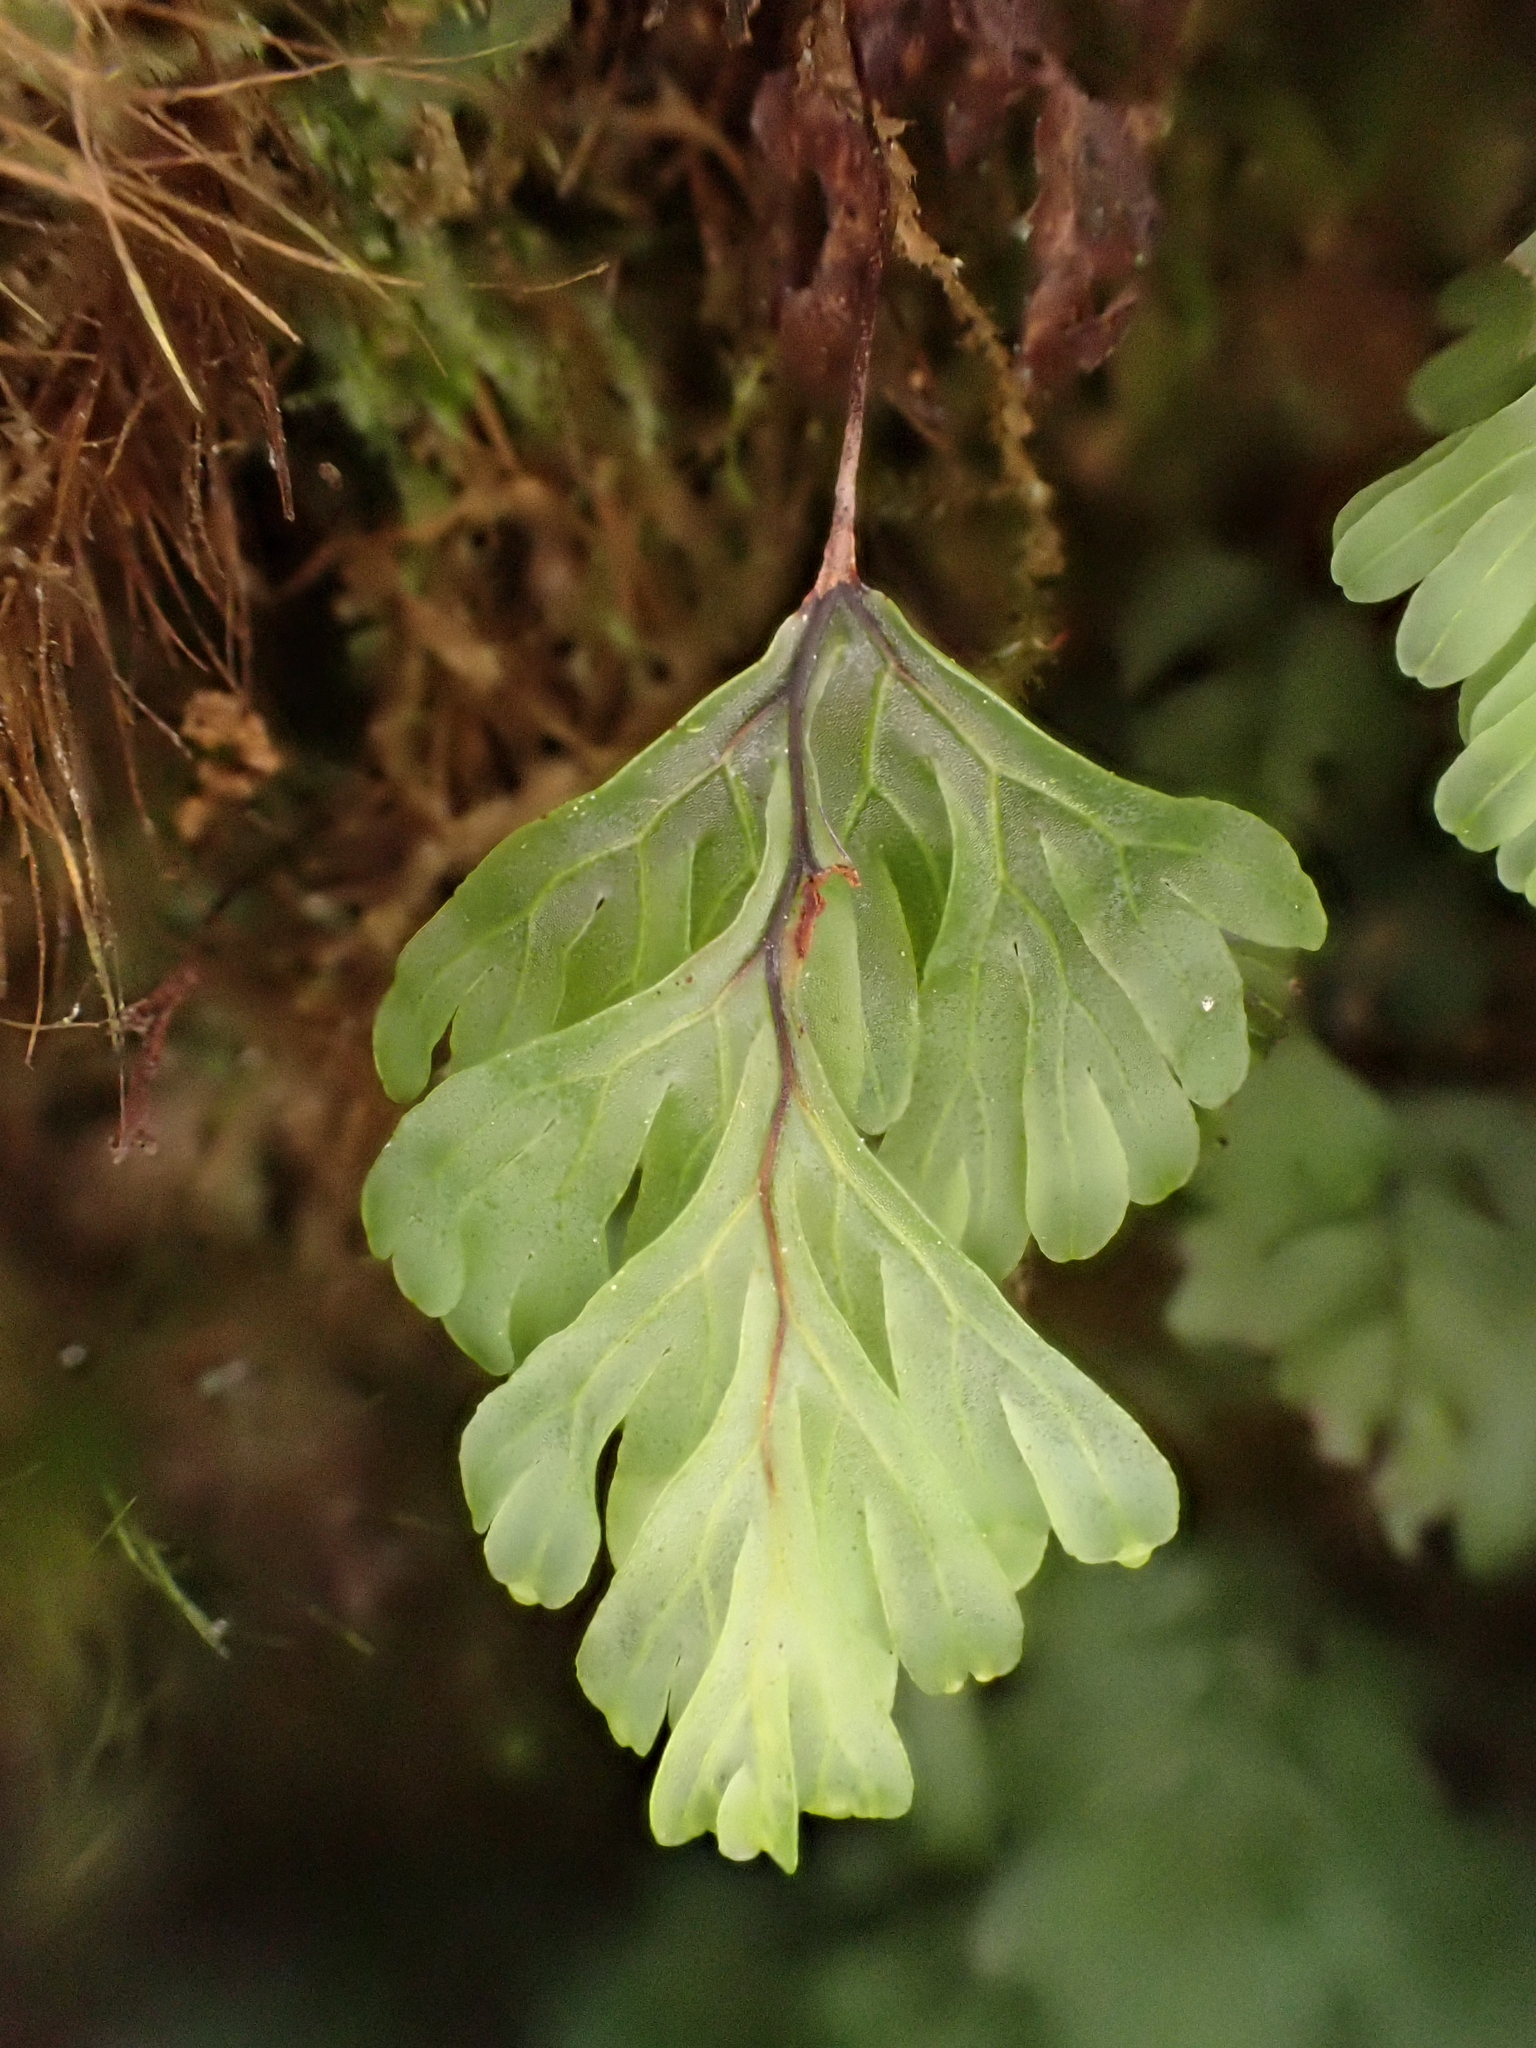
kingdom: Plantae
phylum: Tracheophyta
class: Polypodiopsida
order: Hymenophyllales
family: Hymenophyllaceae
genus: Hymenophyllum
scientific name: Hymenophyllum rarum
